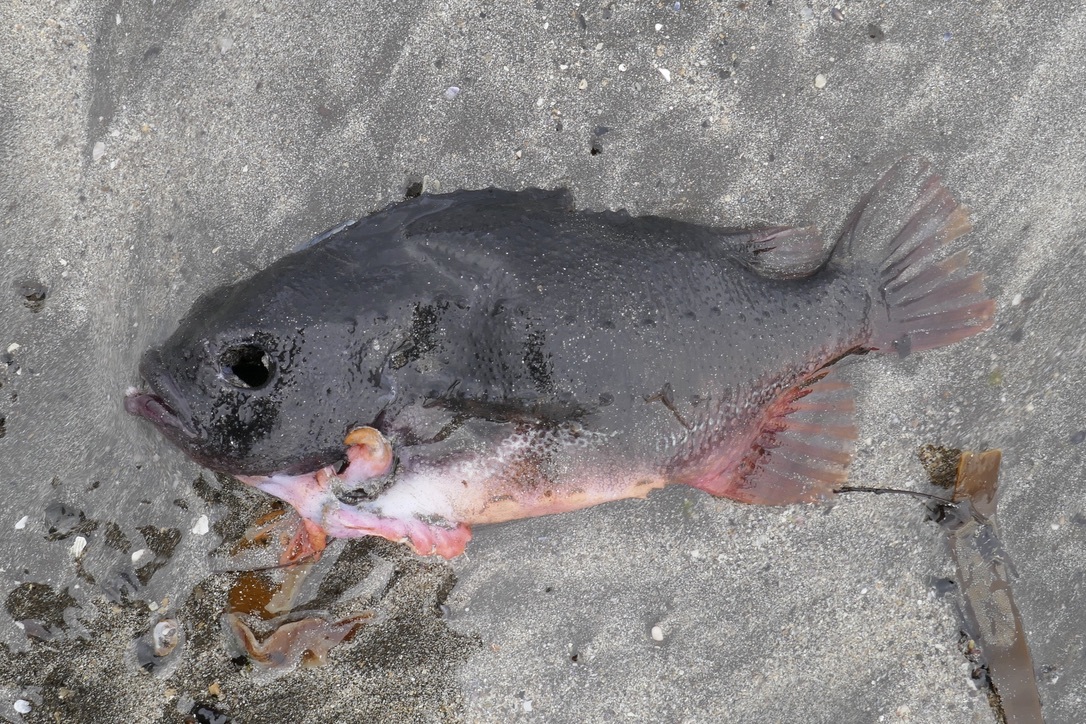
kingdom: Animalia
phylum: Chordata
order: Scorpaeniformes
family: Cyclopteridae
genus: Cyclopterus
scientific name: Cyclopterus lumpus
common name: Lumpsucker
